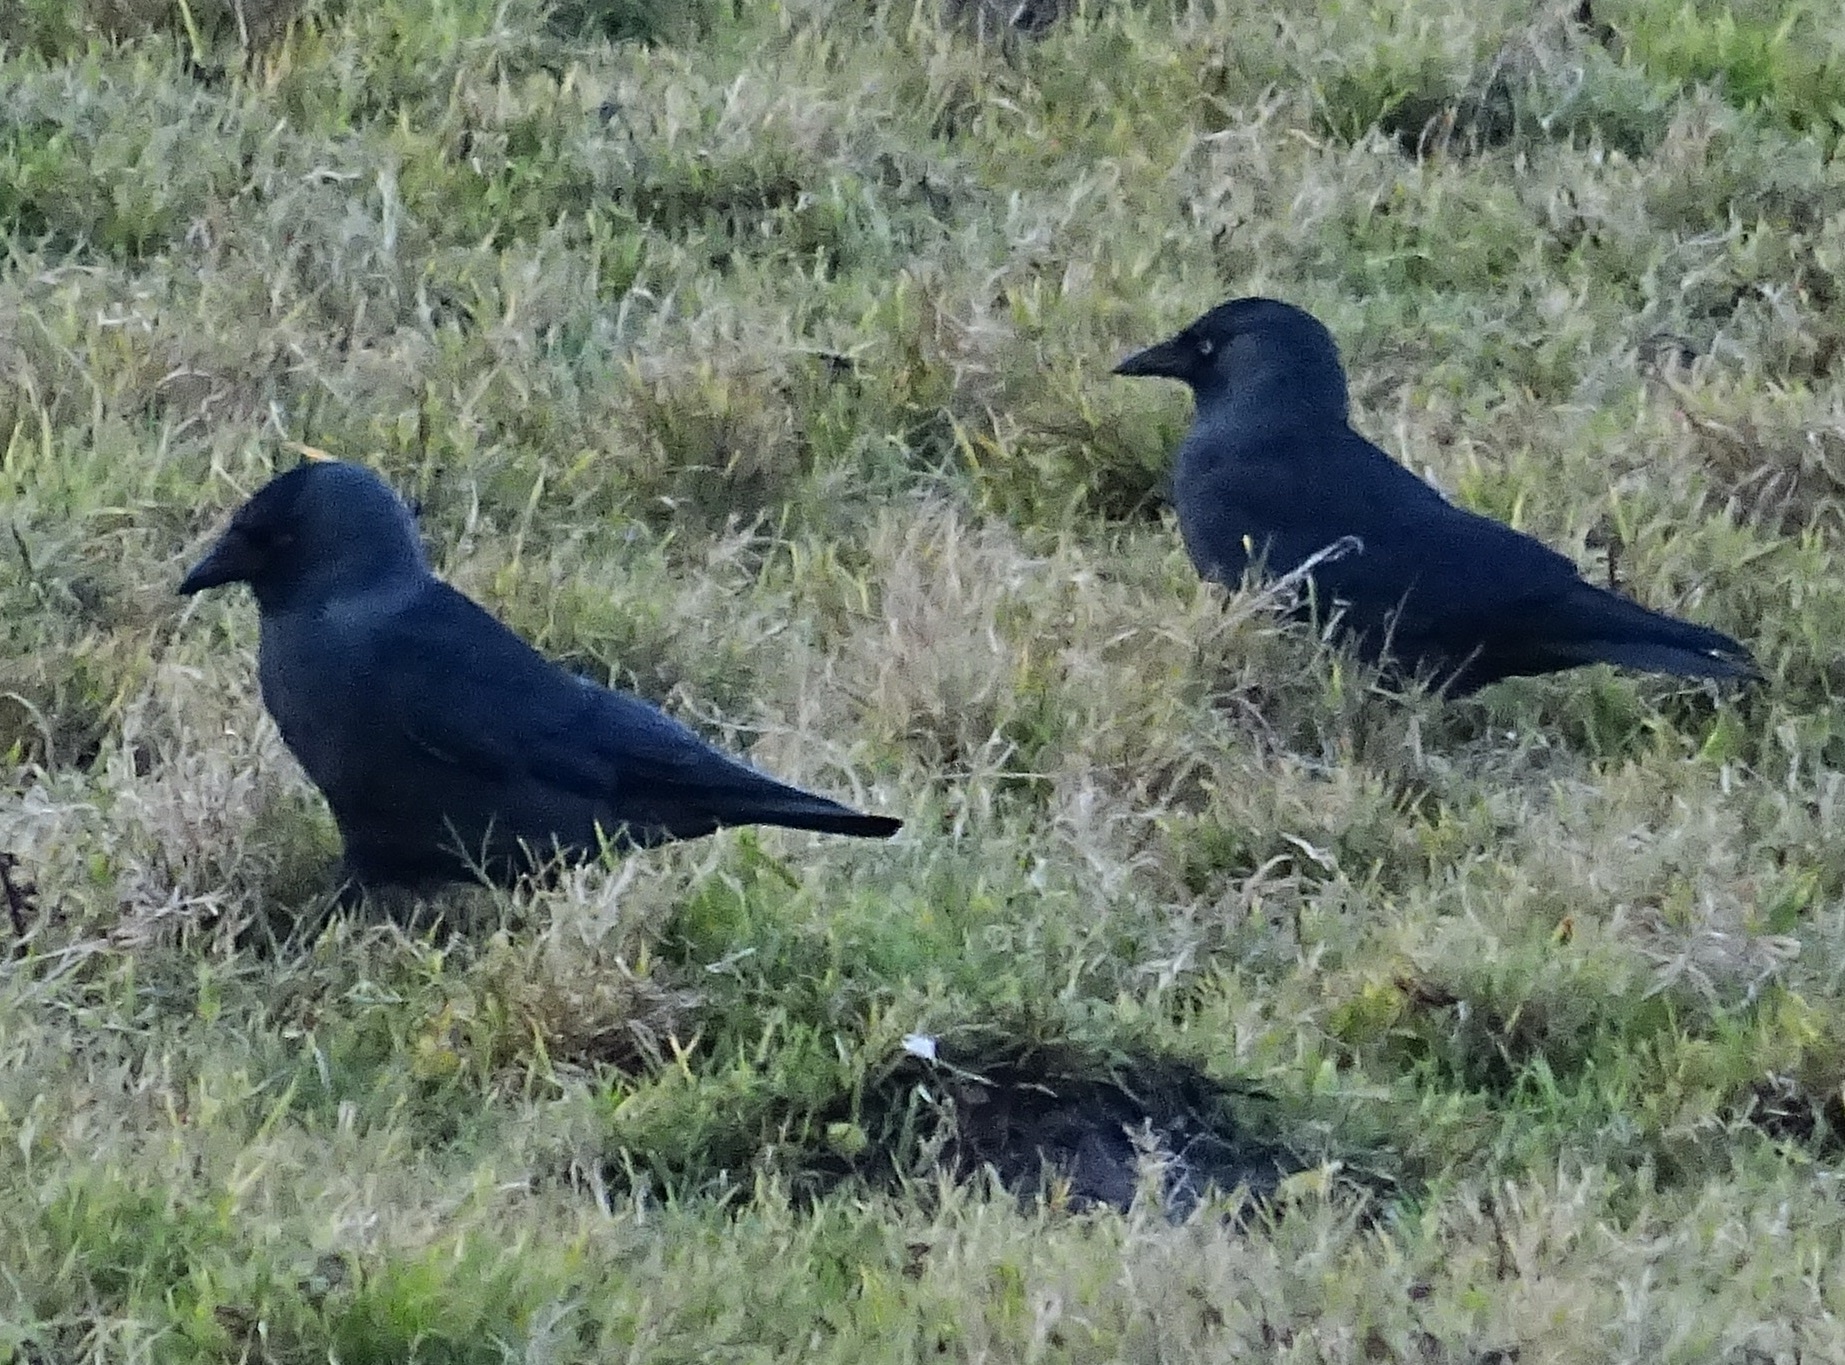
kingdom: Animalia
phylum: Chordata
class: Aves
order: Passeriformes
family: Corvidae
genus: Coloeus
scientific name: Coloeus monedula
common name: Western jackdaw
